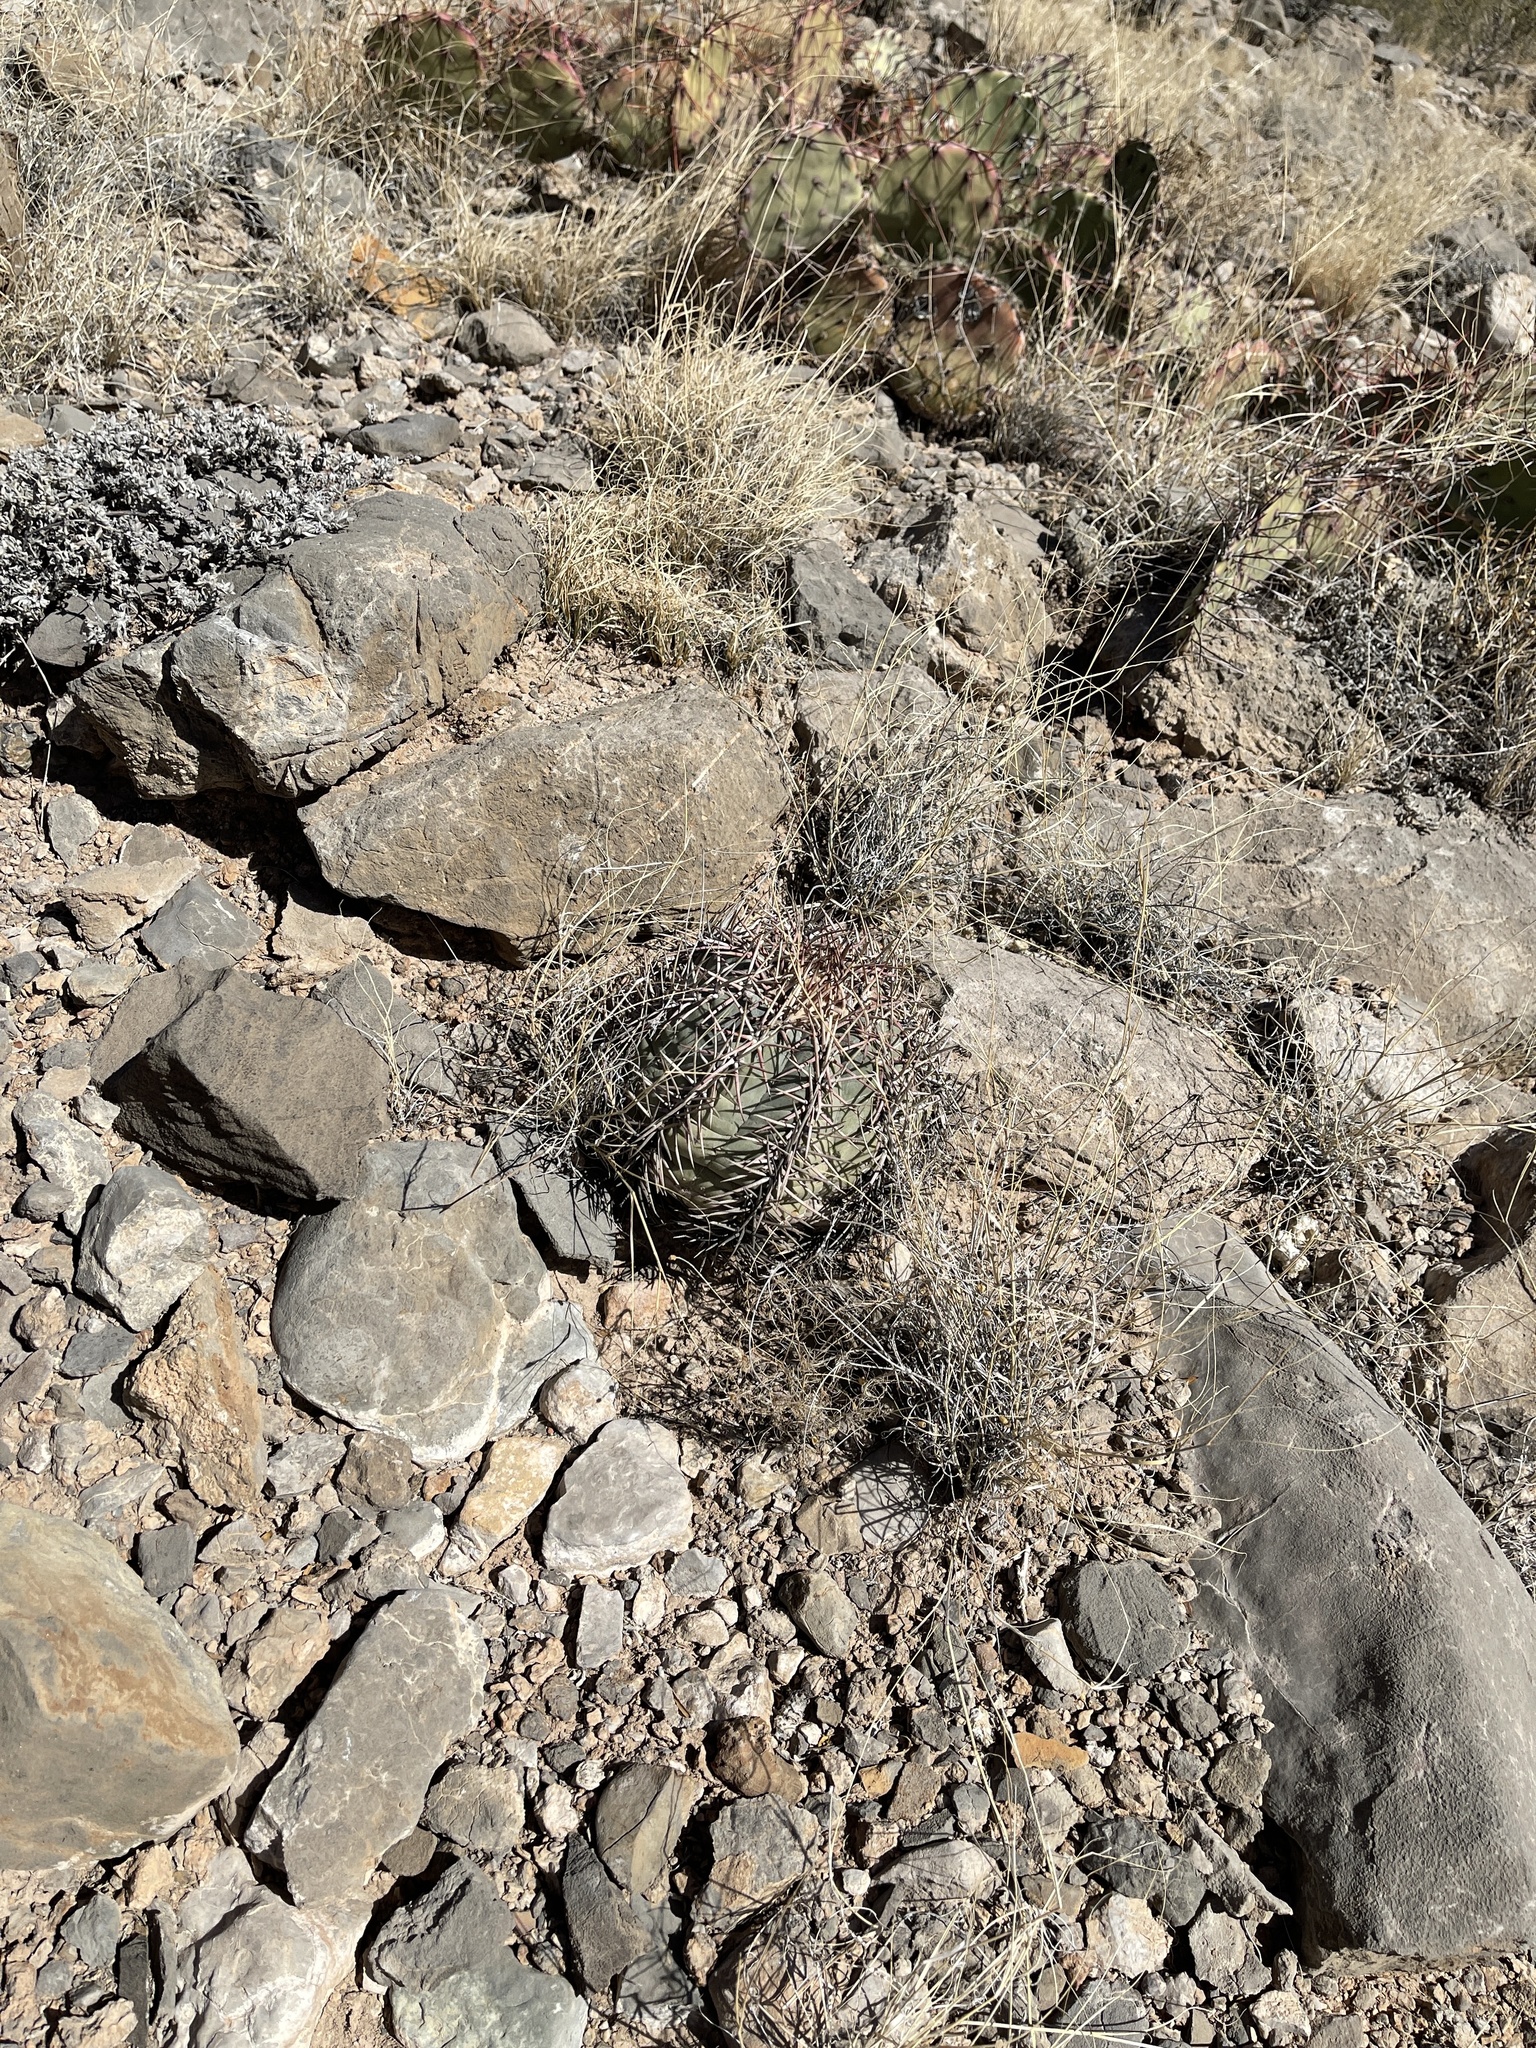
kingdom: Plantae
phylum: Tracheophyta
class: Magnoliopsida
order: Caryophyllales
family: Cactaceae
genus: Echinocactus
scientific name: Echinocactus horizonthalonius
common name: Devilshead
